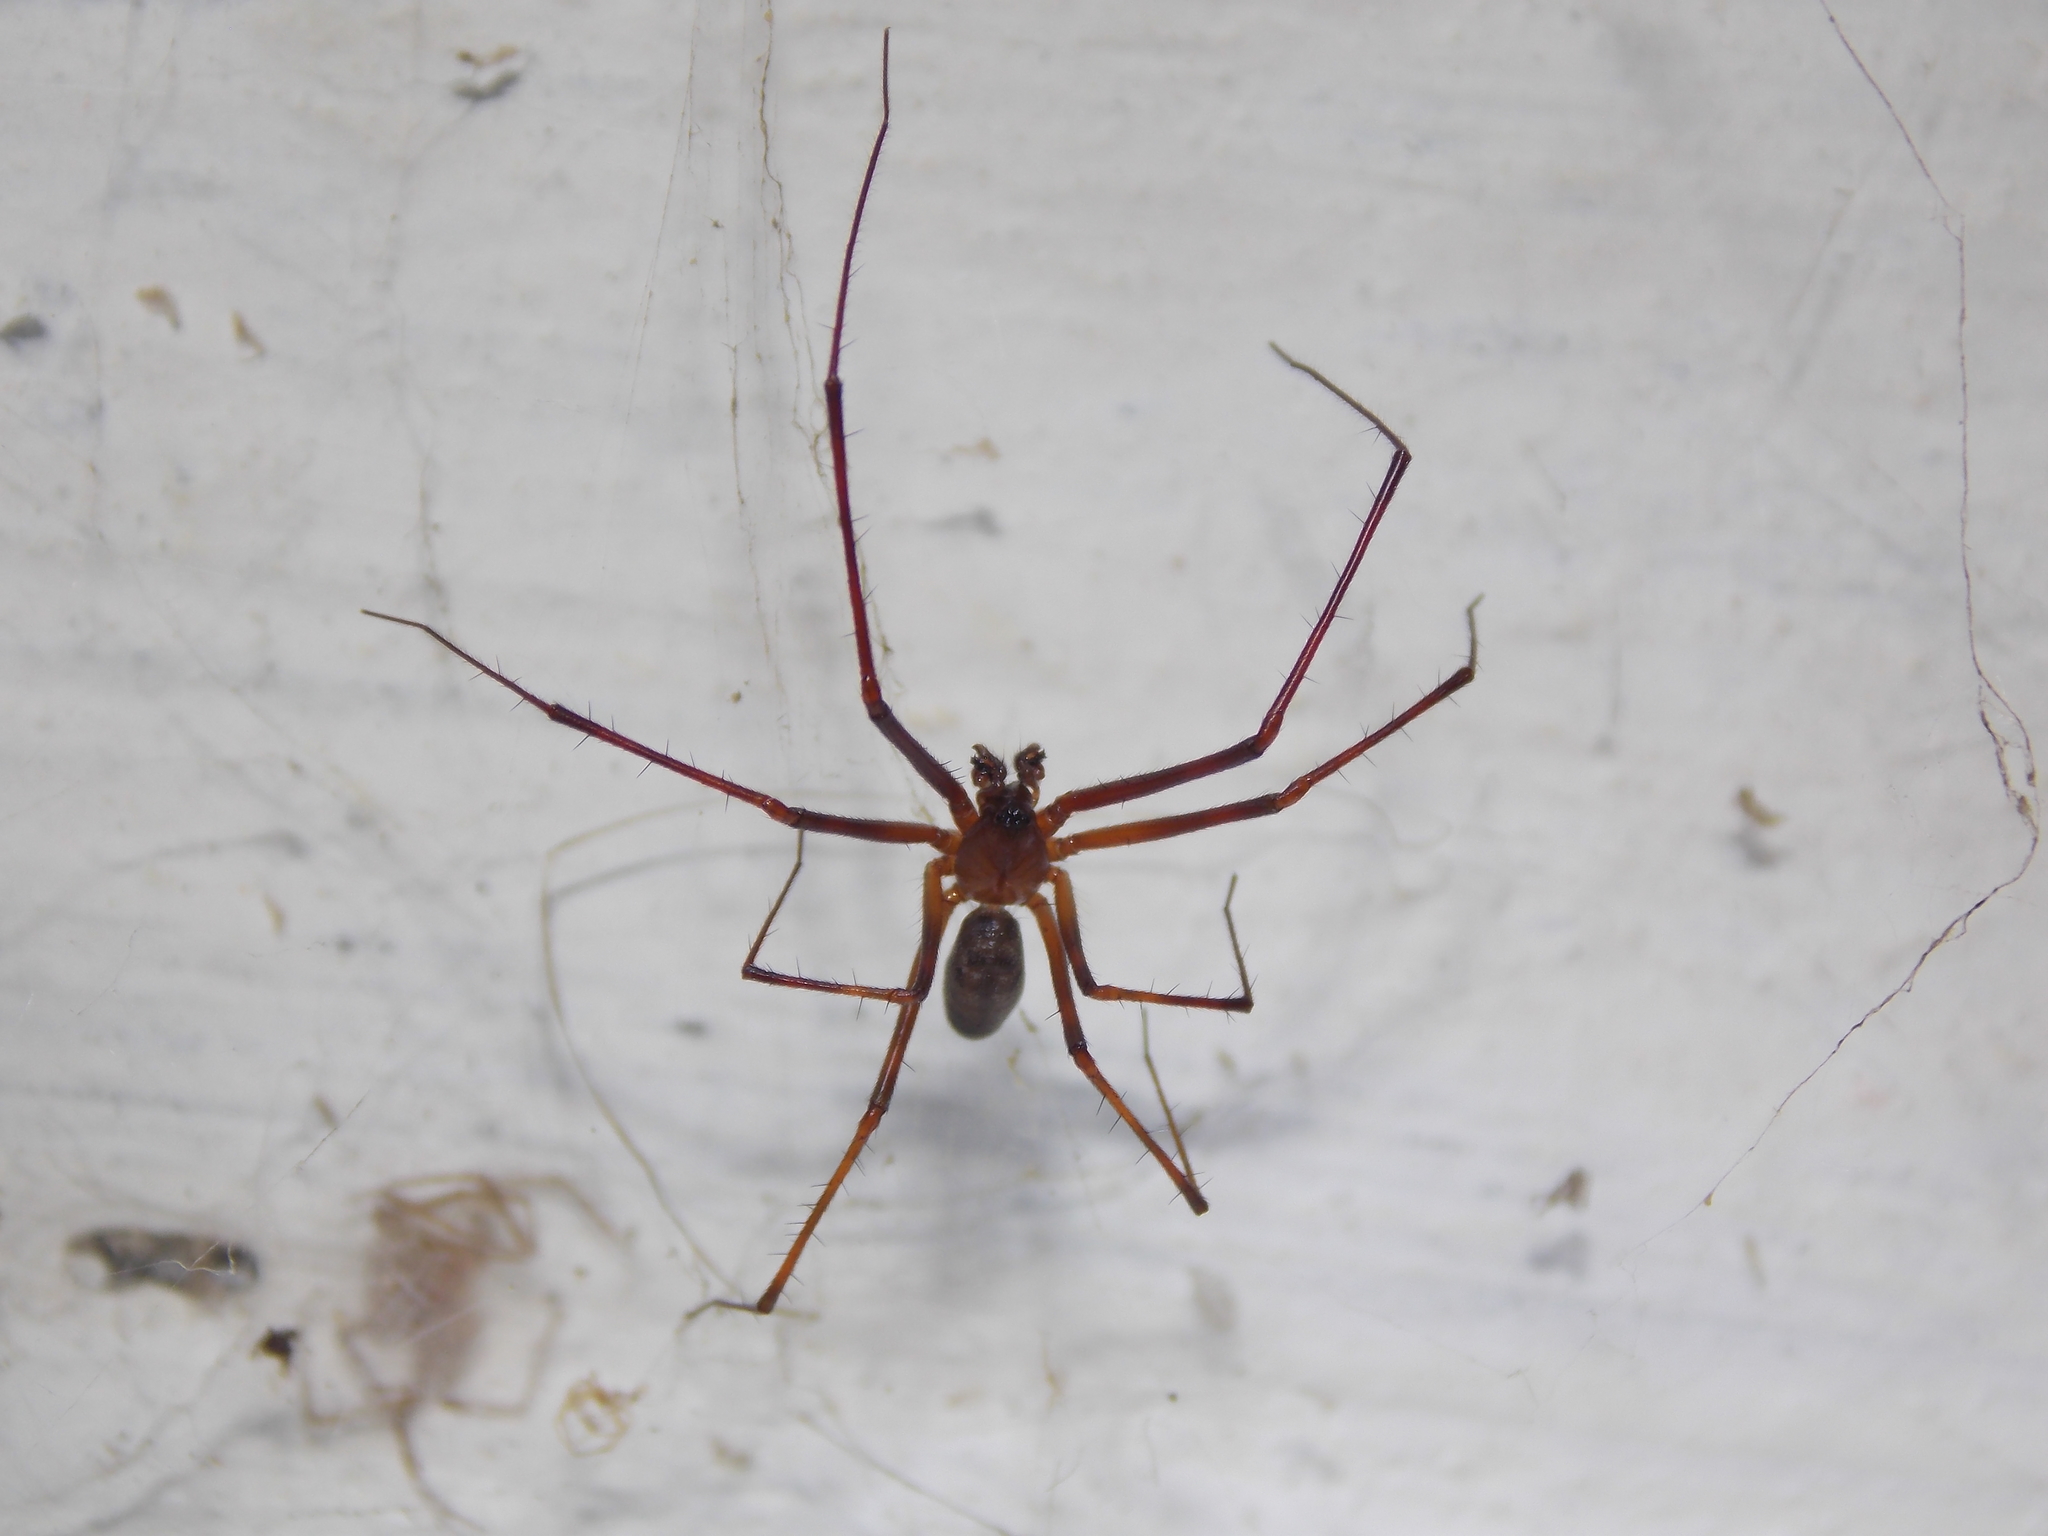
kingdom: Animalia
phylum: Arthropoda
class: Arachnida
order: Araneae
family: Pimoidae
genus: Pimoa
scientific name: Pimoa rupicola
